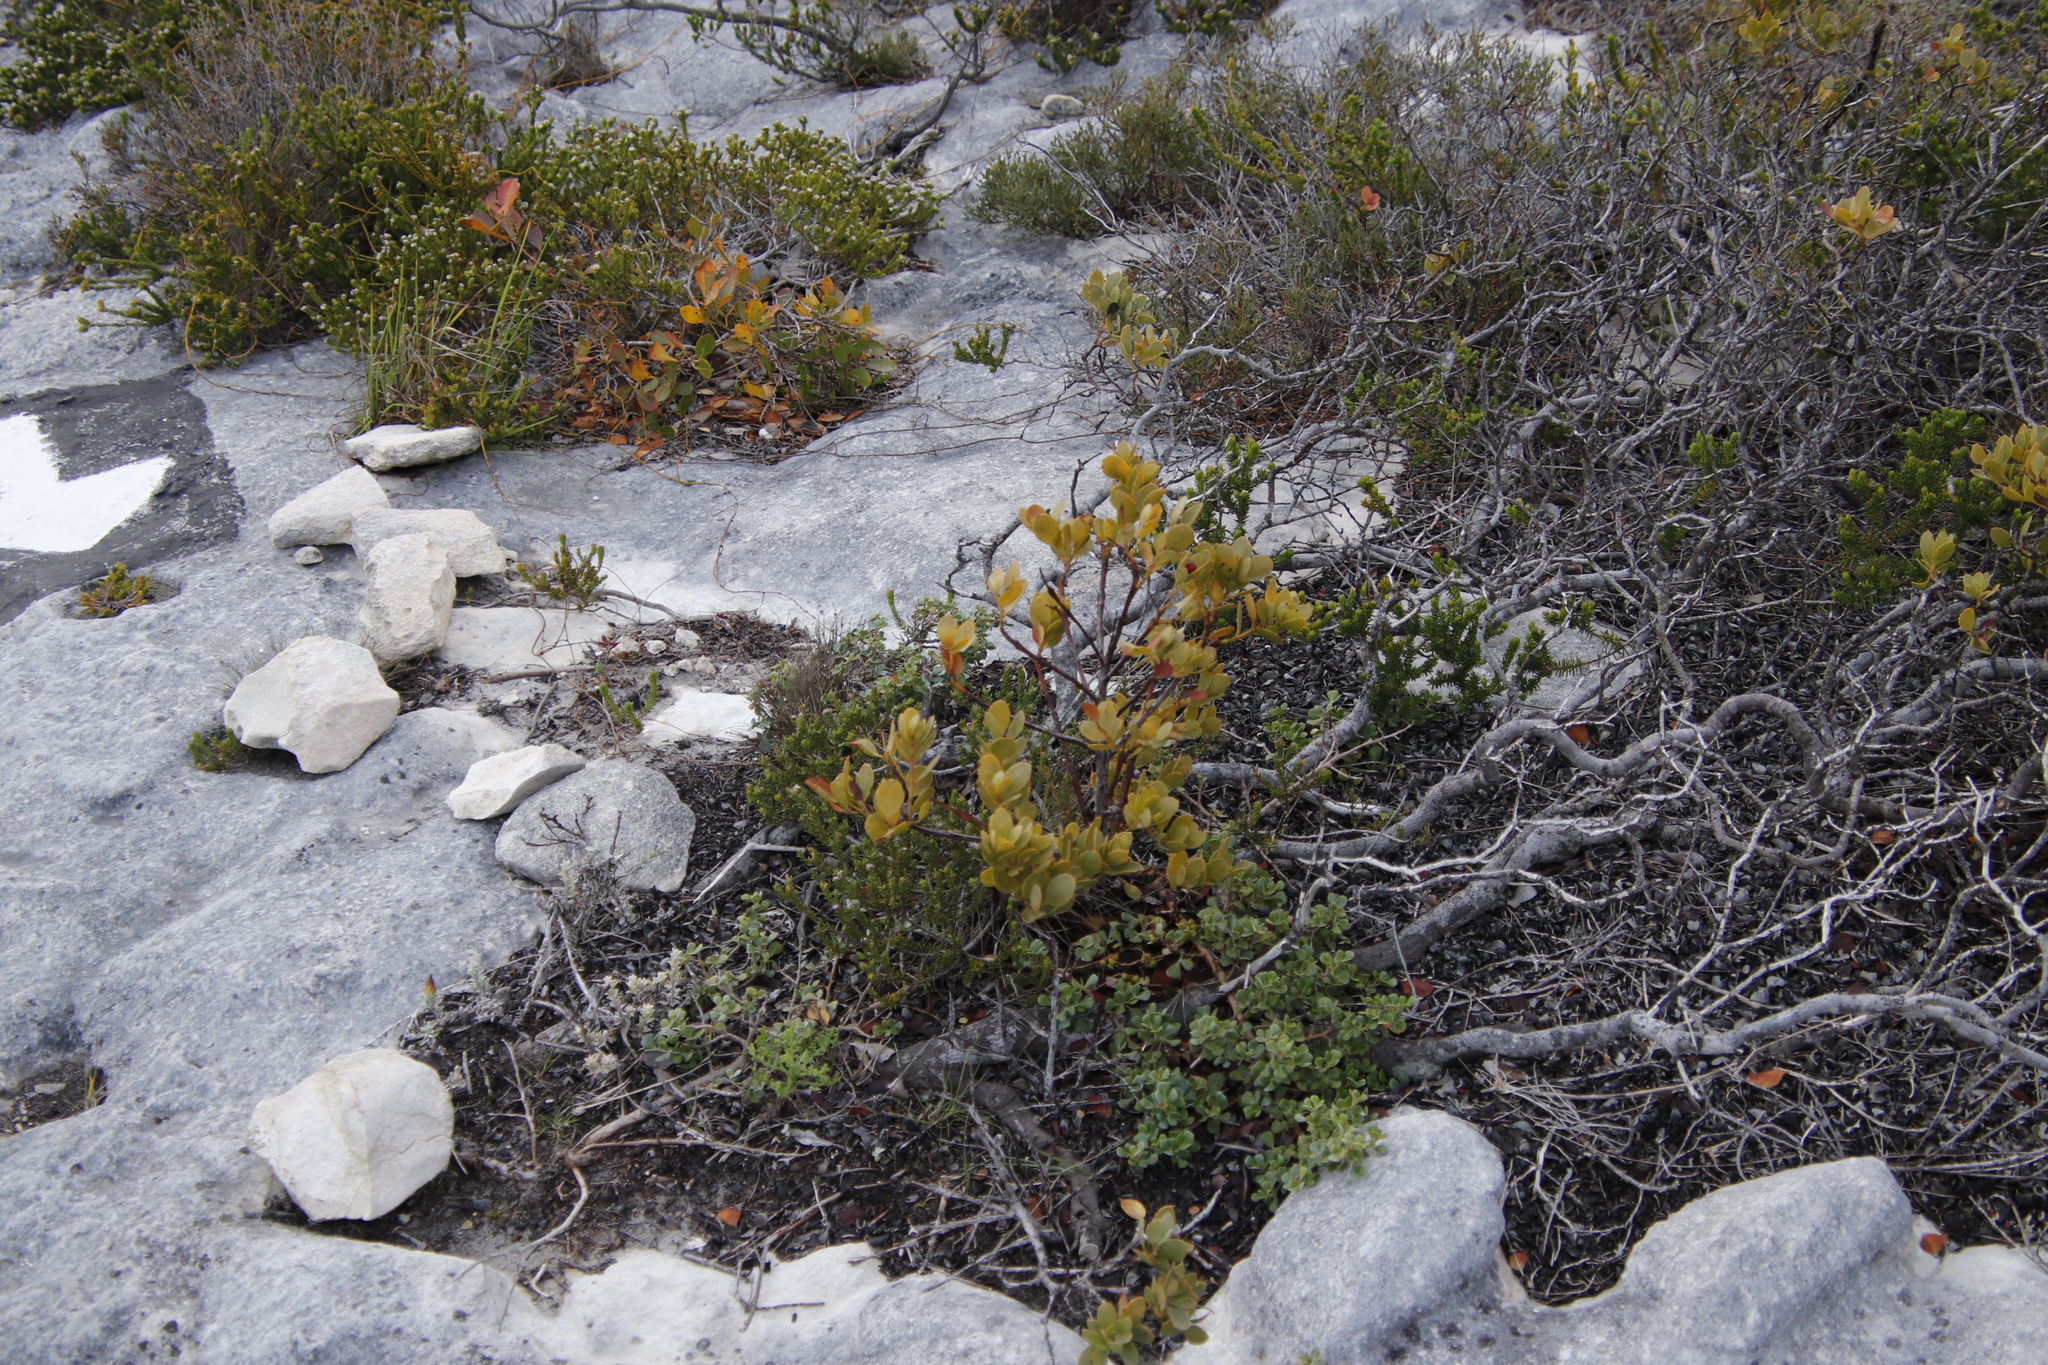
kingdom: Plantae
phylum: Tracheophyta
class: Magnoliopsida
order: Santalales
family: Santalaceae
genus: Osyris
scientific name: Osyris compressa
